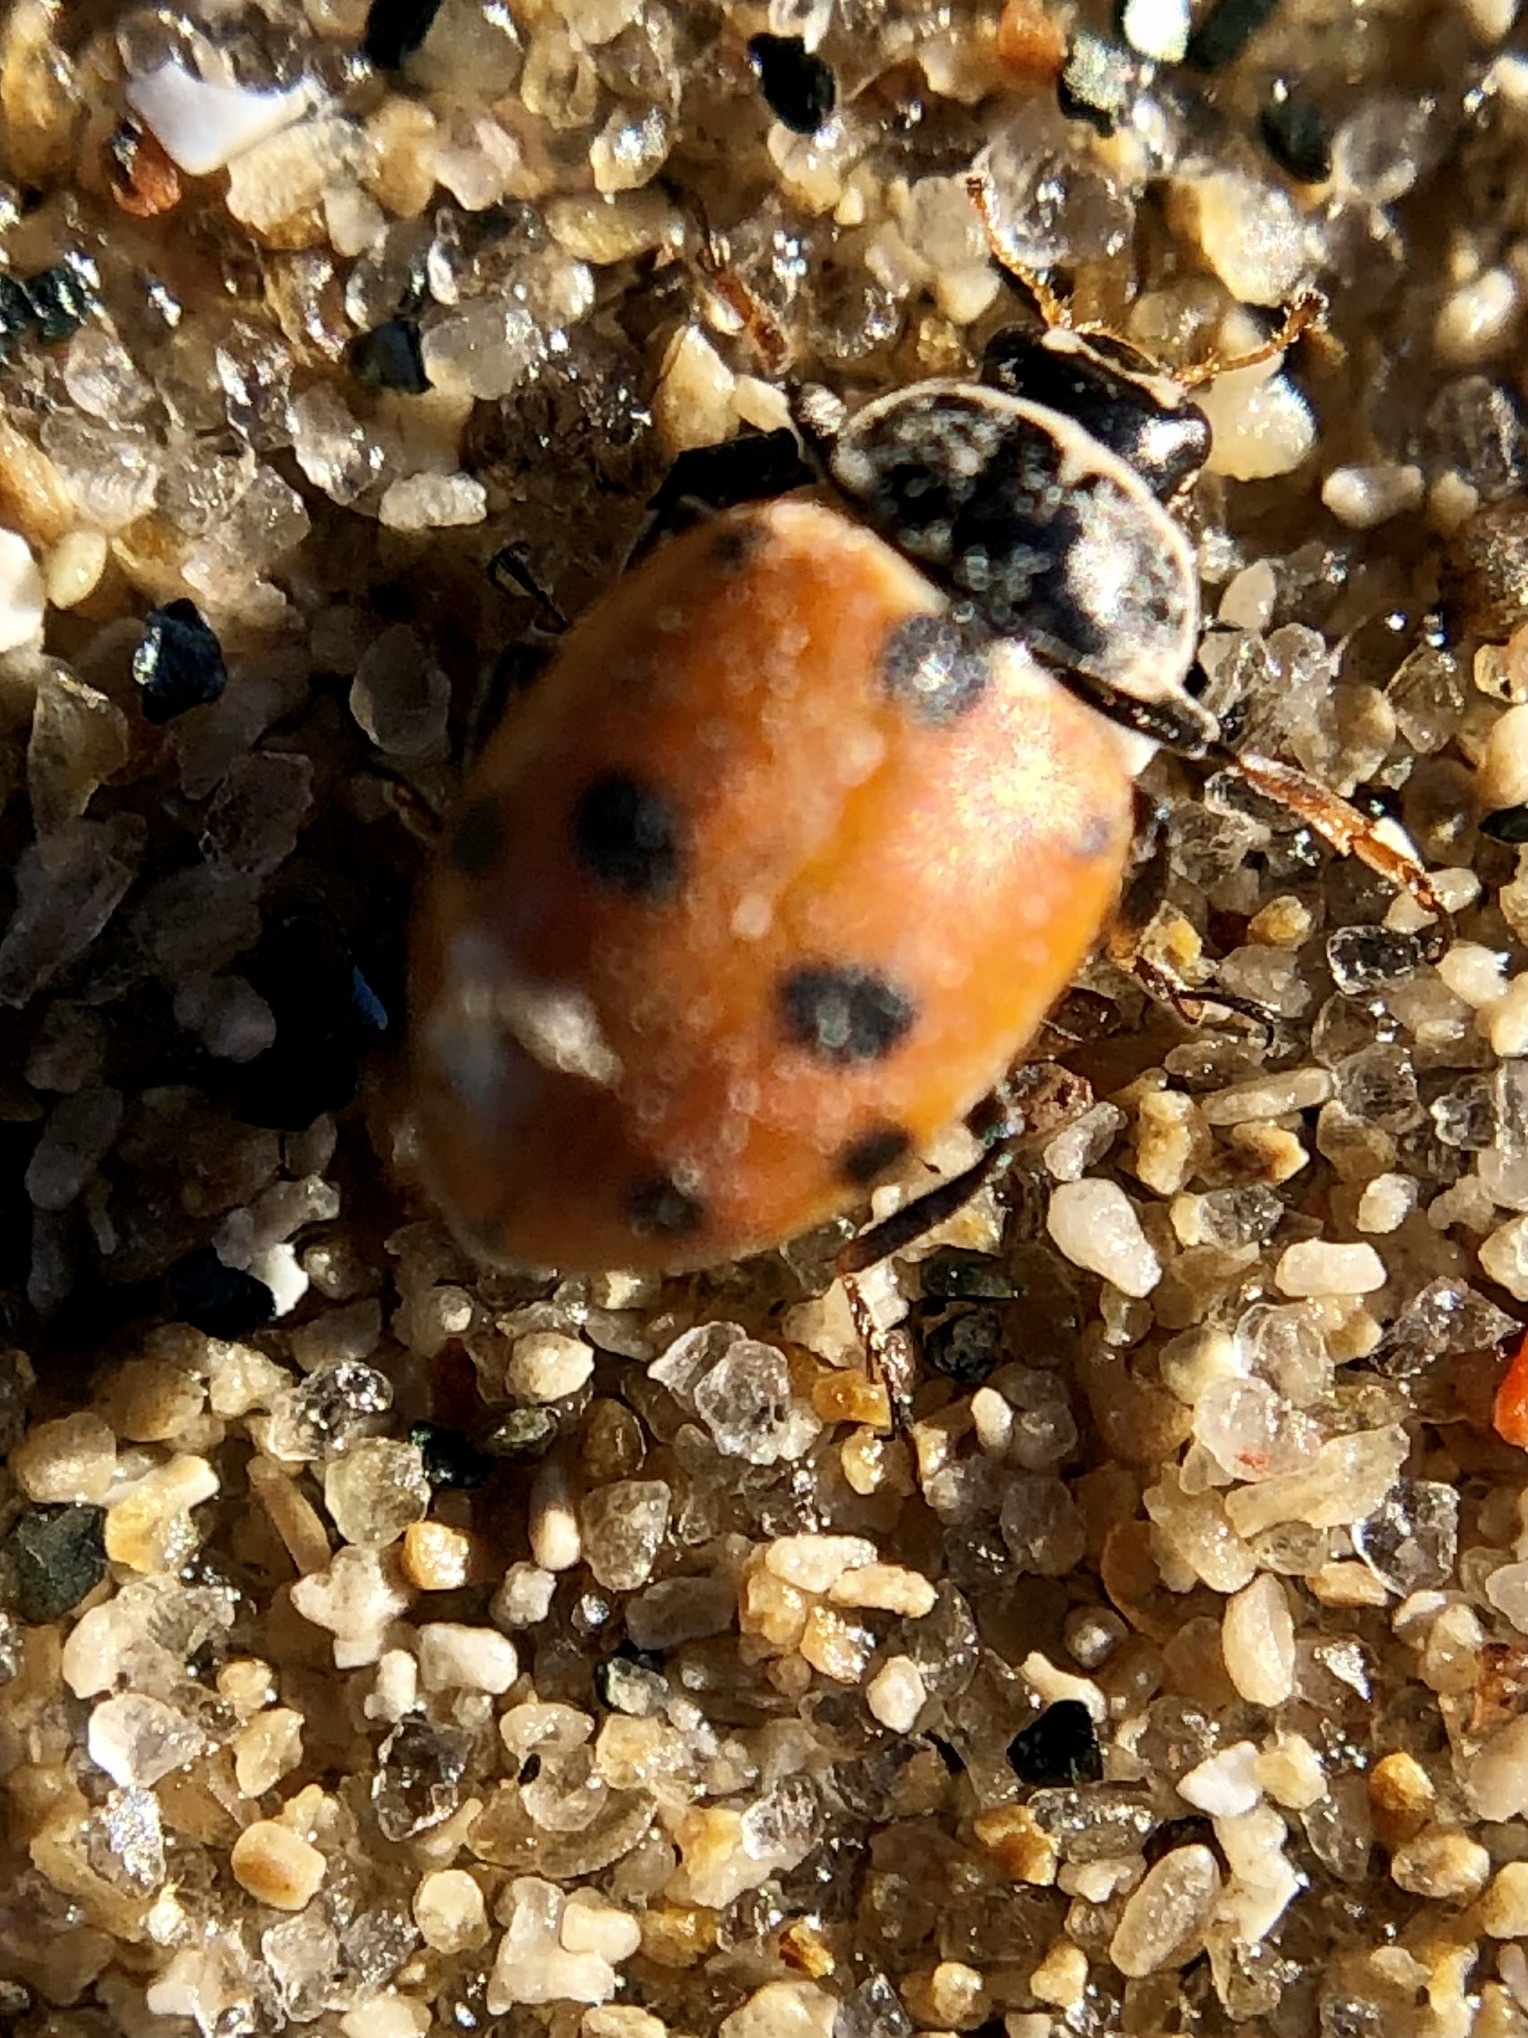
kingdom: Animalia
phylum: Arthropoda
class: Insecta
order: Coleoptera
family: Coccinellidae
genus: Hippodamia
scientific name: Hippodamia variegata
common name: Ladybird beetle
